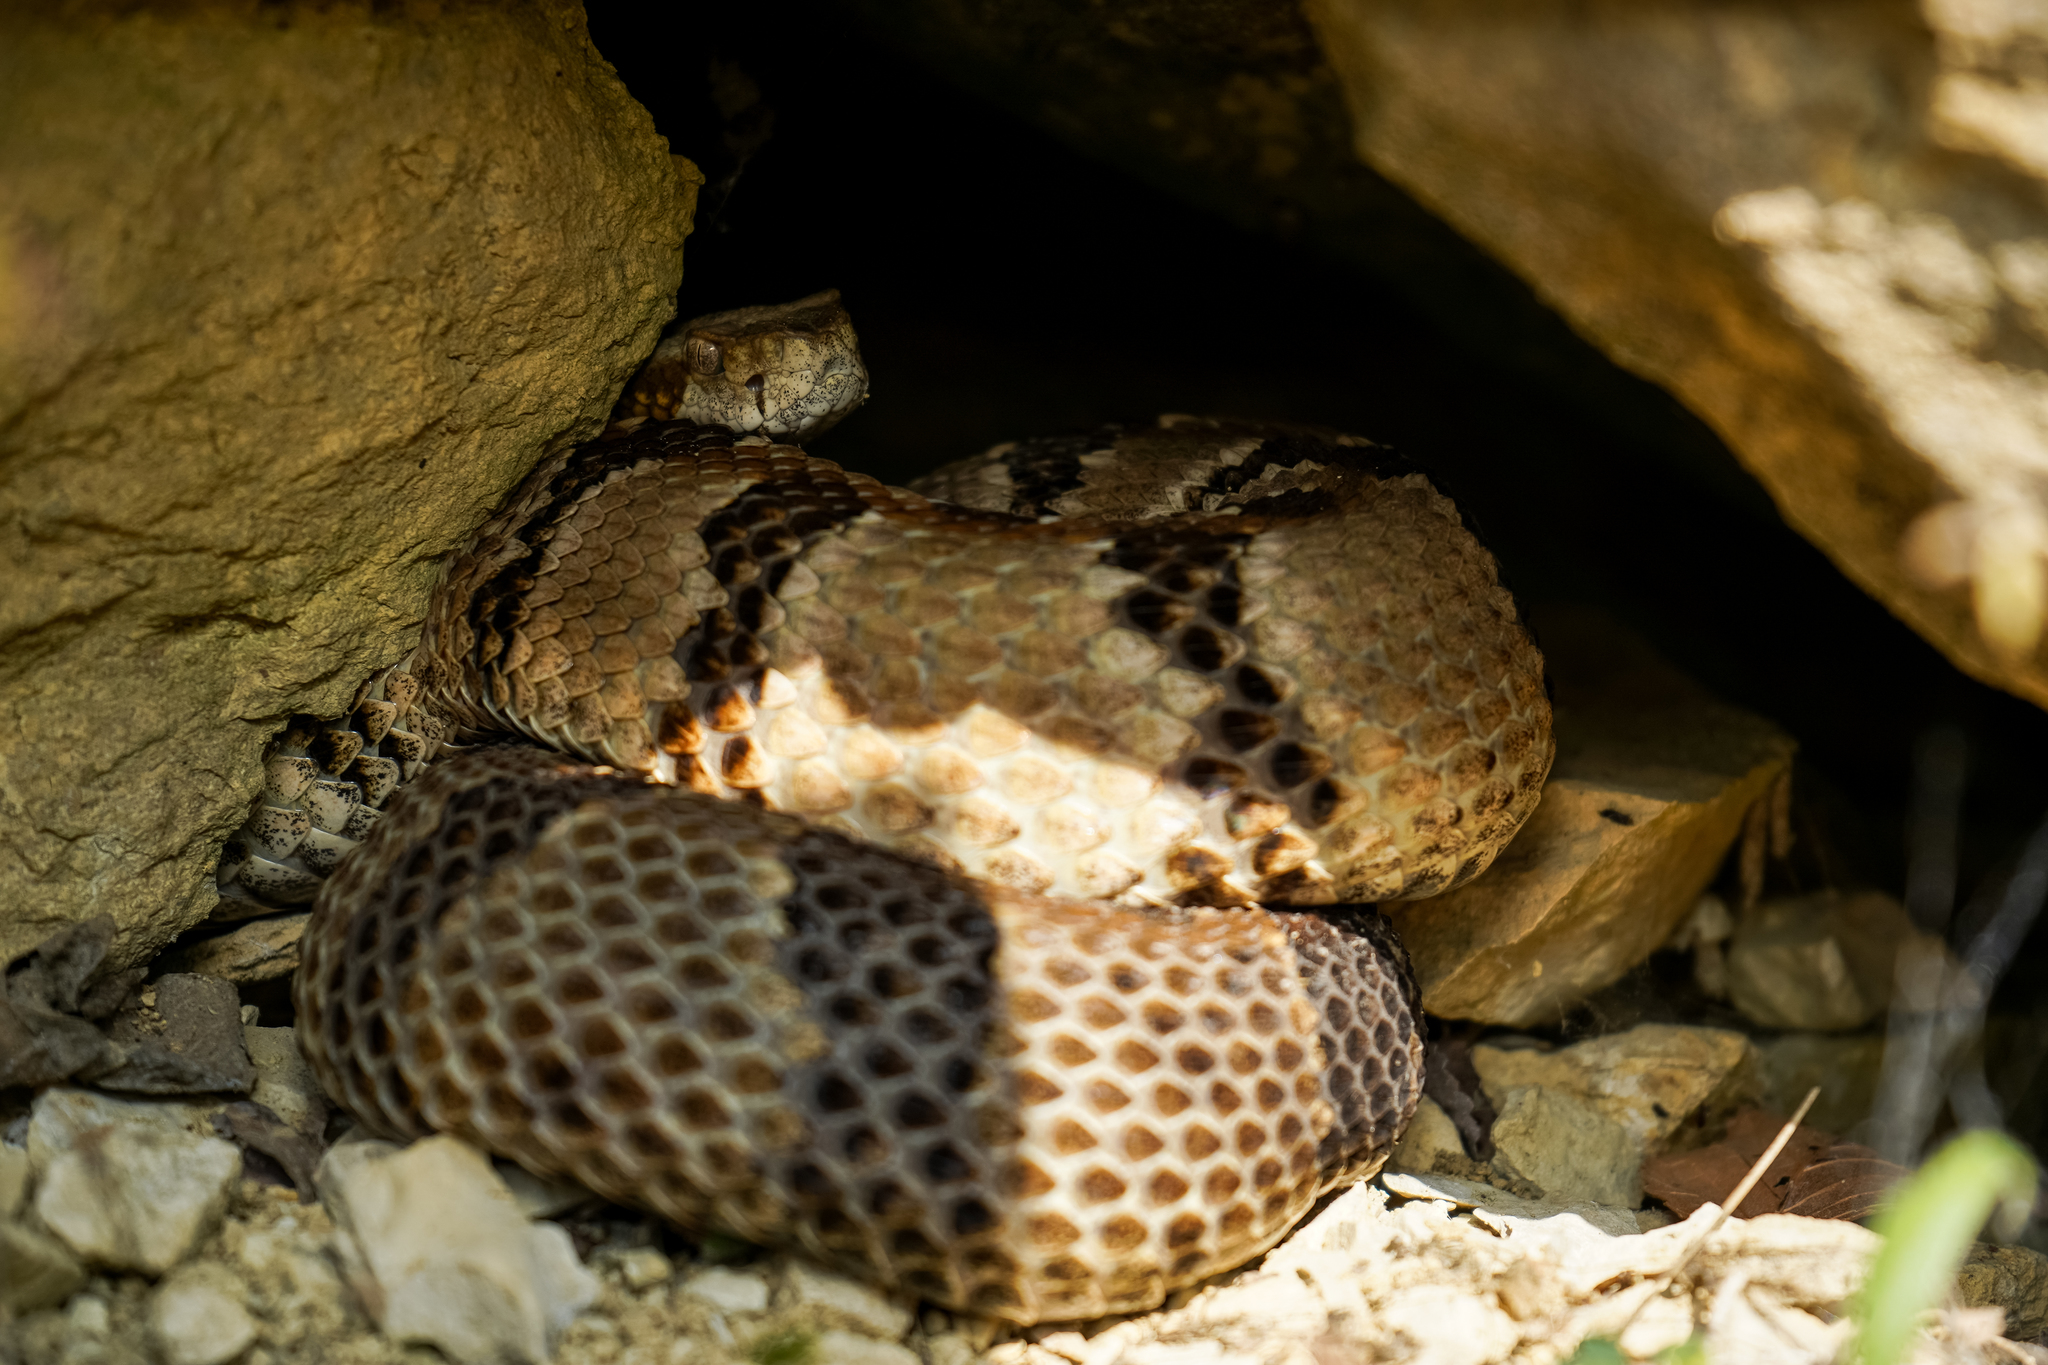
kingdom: Animalia
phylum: Chordata
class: Squamata
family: Viperidae
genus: Crotalus
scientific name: Crotalus horridus
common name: Timber rattlesnake
